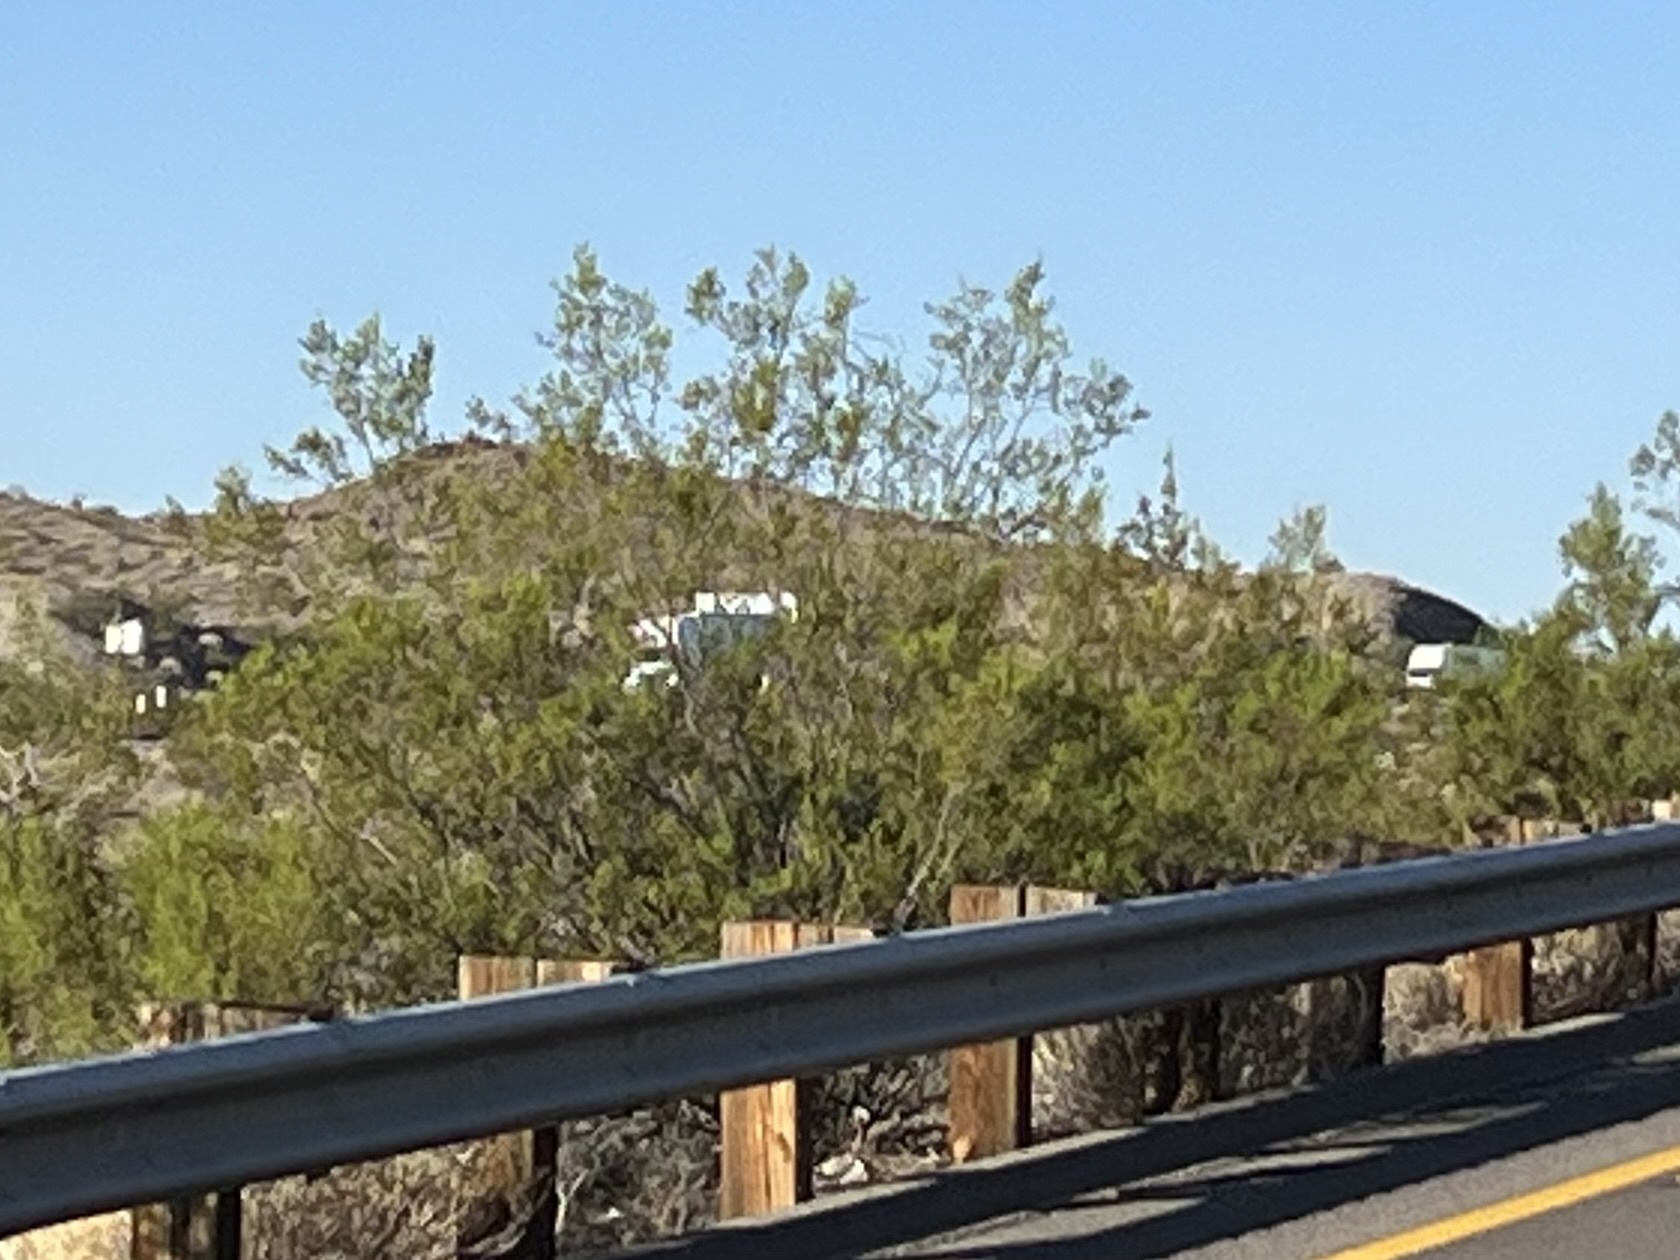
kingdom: Plantae
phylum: Tracheophyta
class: Magnoliopsida
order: Zygophyllales
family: Zygophyllaceae
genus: Larrea
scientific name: Larrea tridentata
